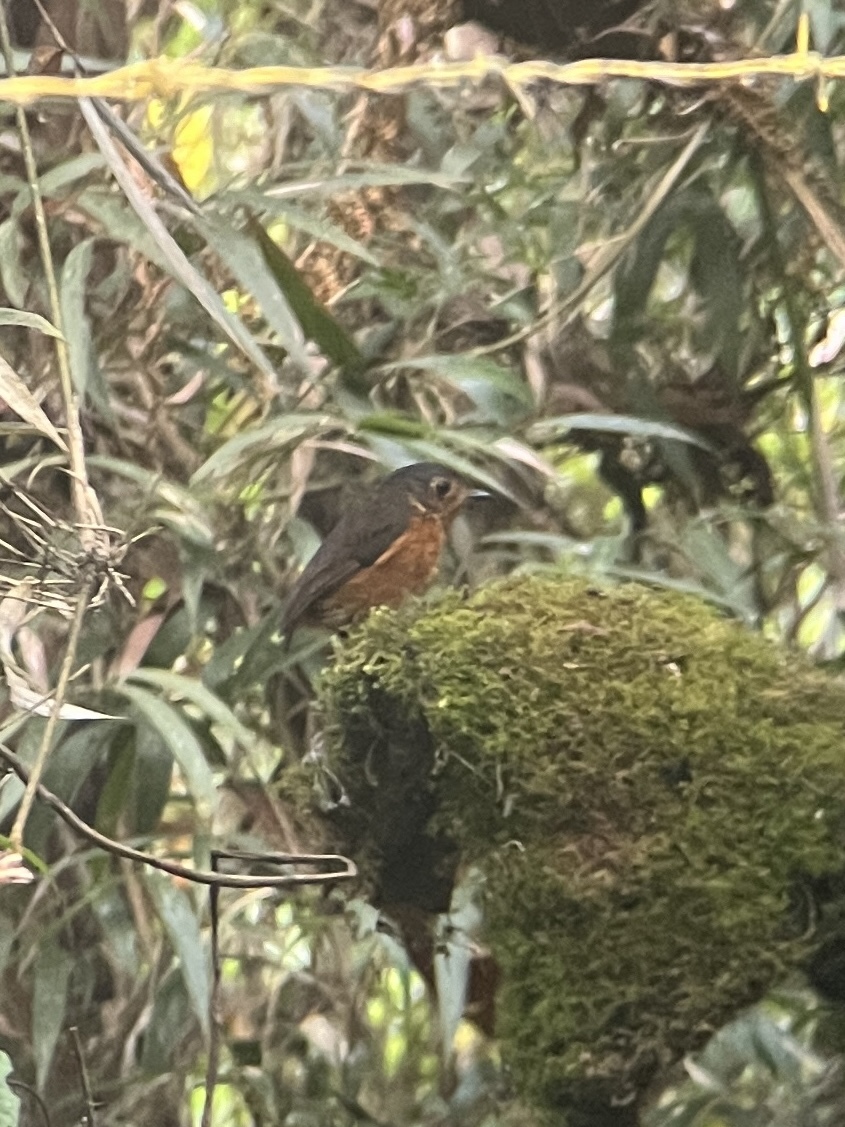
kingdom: Animalia
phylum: Chordata
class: Aves
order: Passeriformes
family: Grallariidae
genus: Grallaricula
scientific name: Grallaricula nana
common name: Slaty-crowned antpitta
